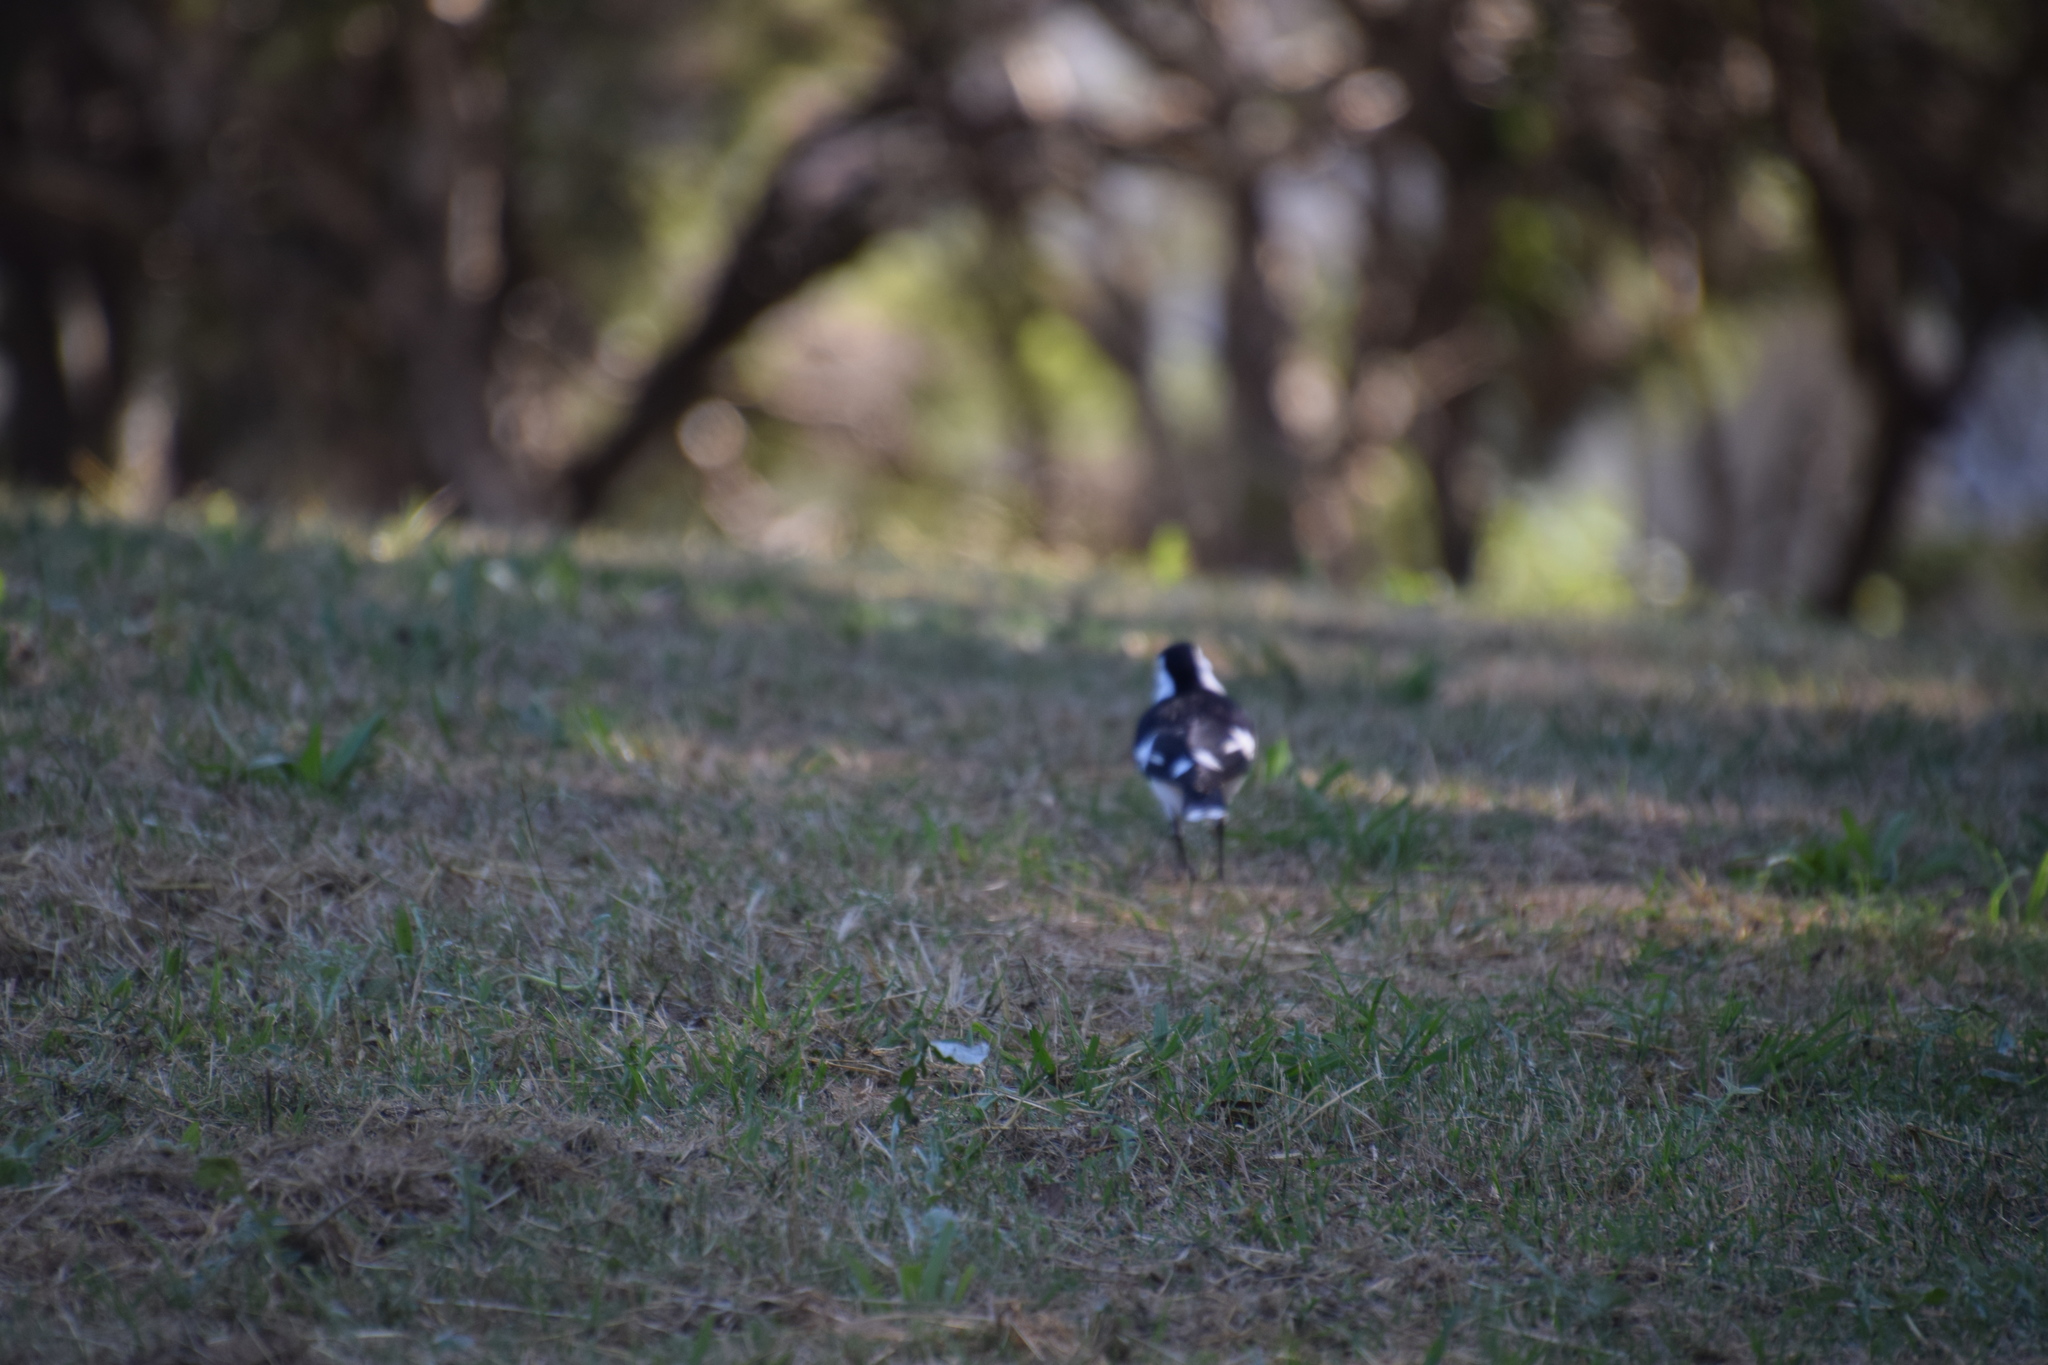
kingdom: Animalia
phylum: Chordata
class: Aves
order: Passeriformes
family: Monarchidae
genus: Grallina
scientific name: Grallina cyanoleuca
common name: Magpie-lark
